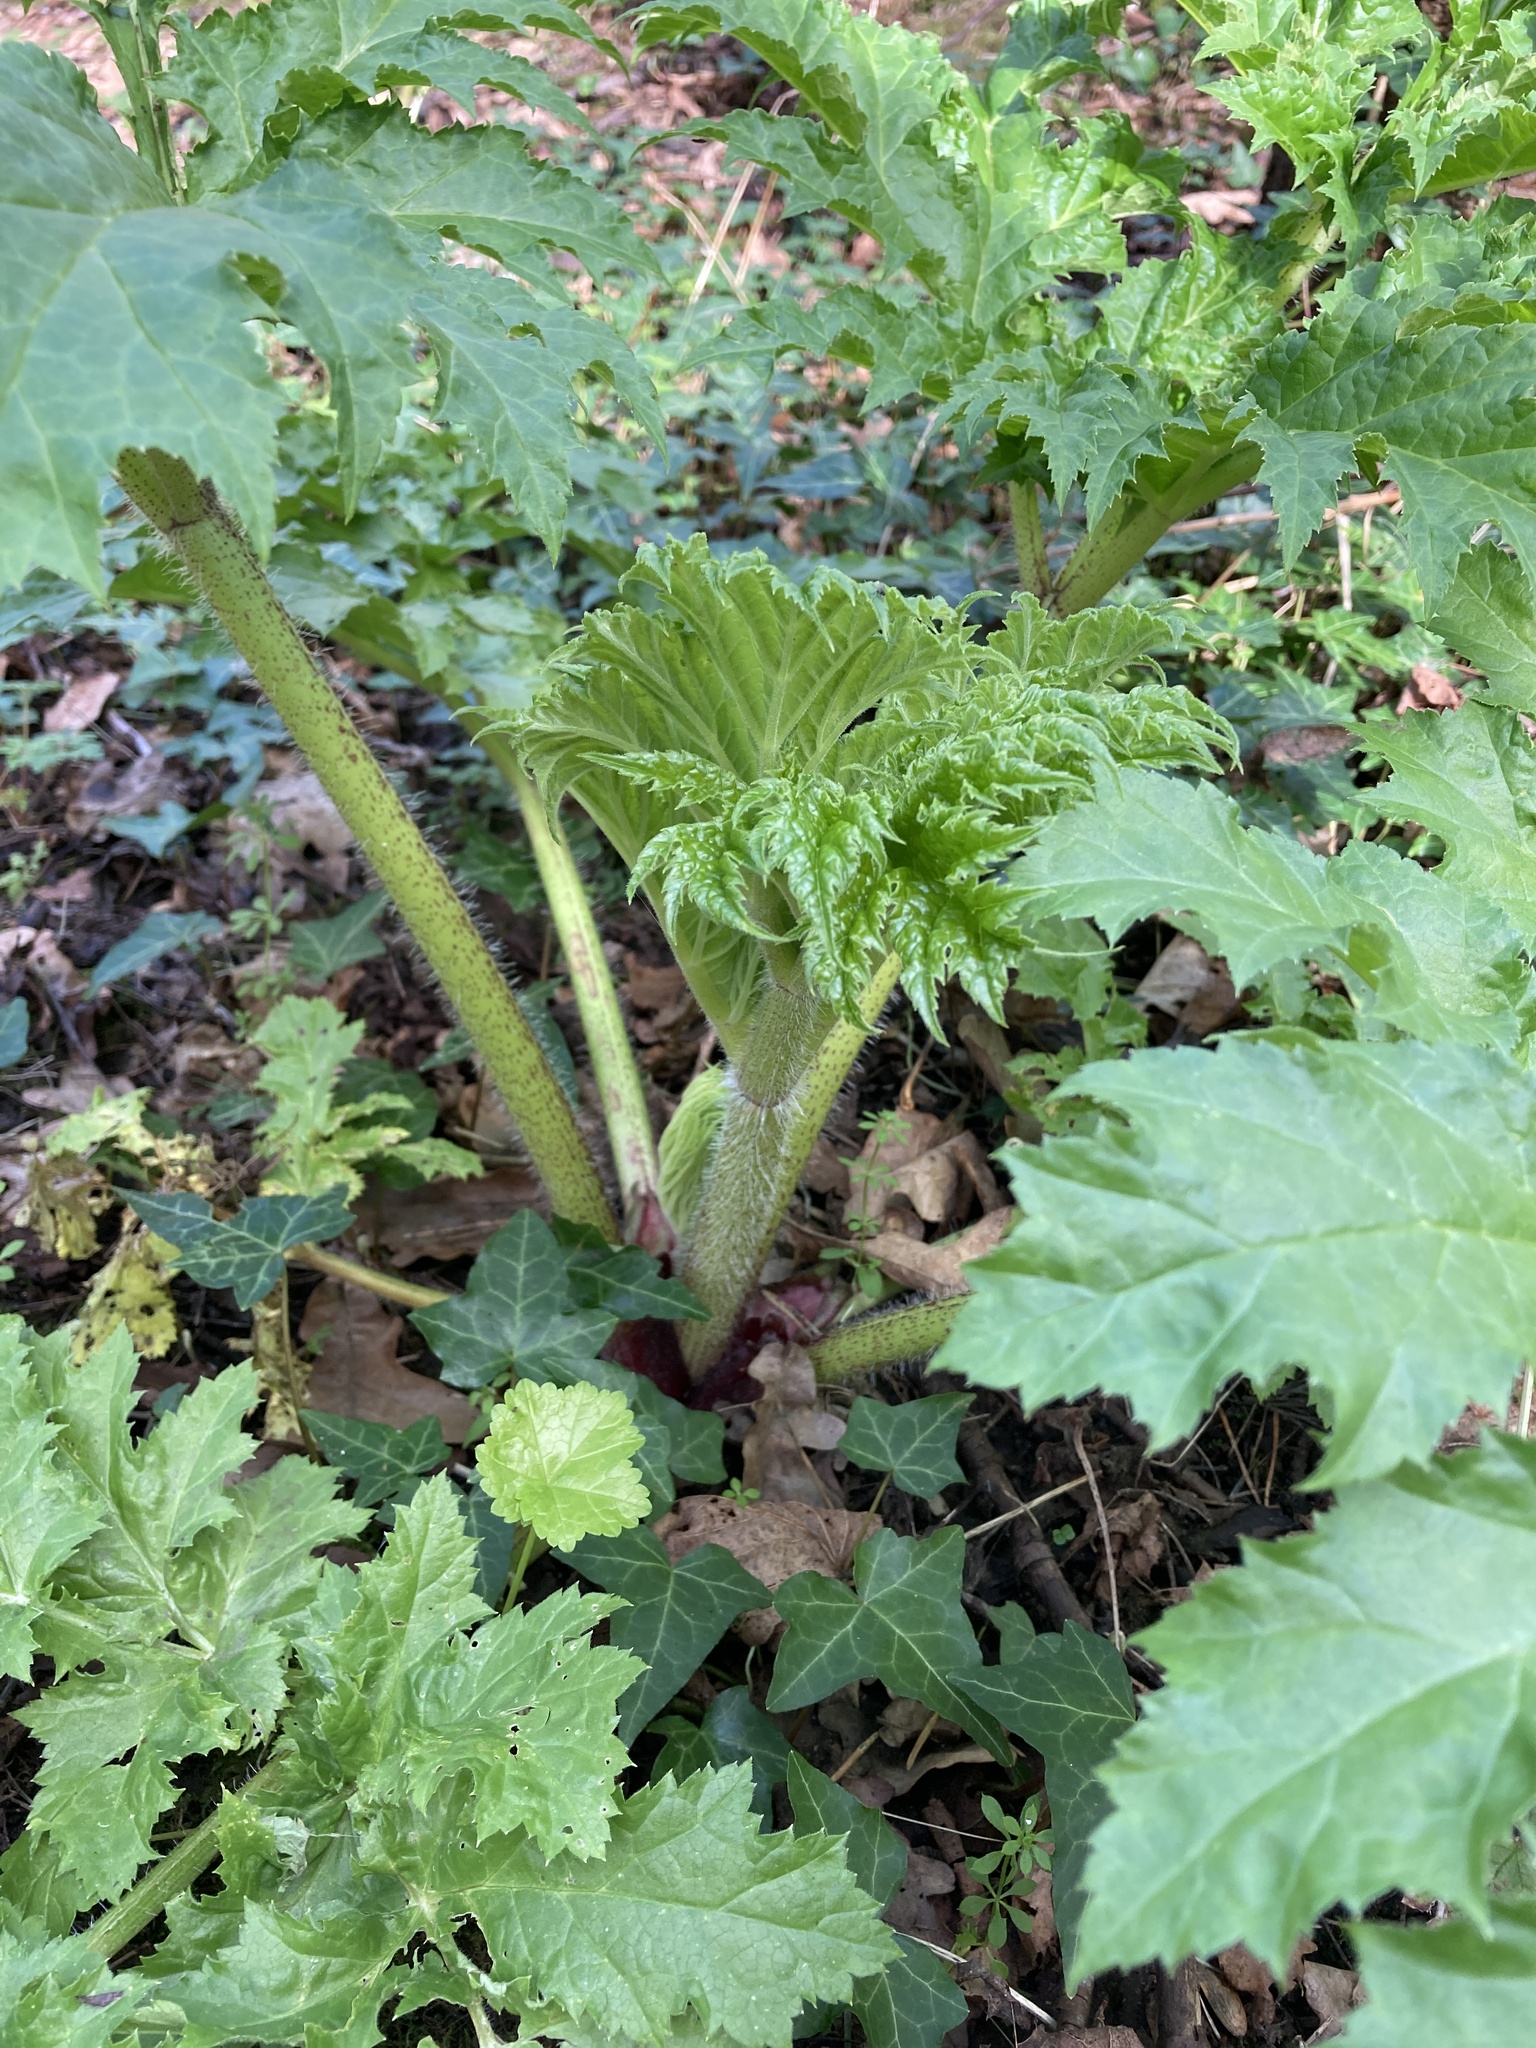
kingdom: Plantae
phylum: Tracheophyta
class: Magnoliopsida
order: Apiales
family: Apiaceae
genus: Heracleum
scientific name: Heracleum mantegazzianum
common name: Giant hogweed
